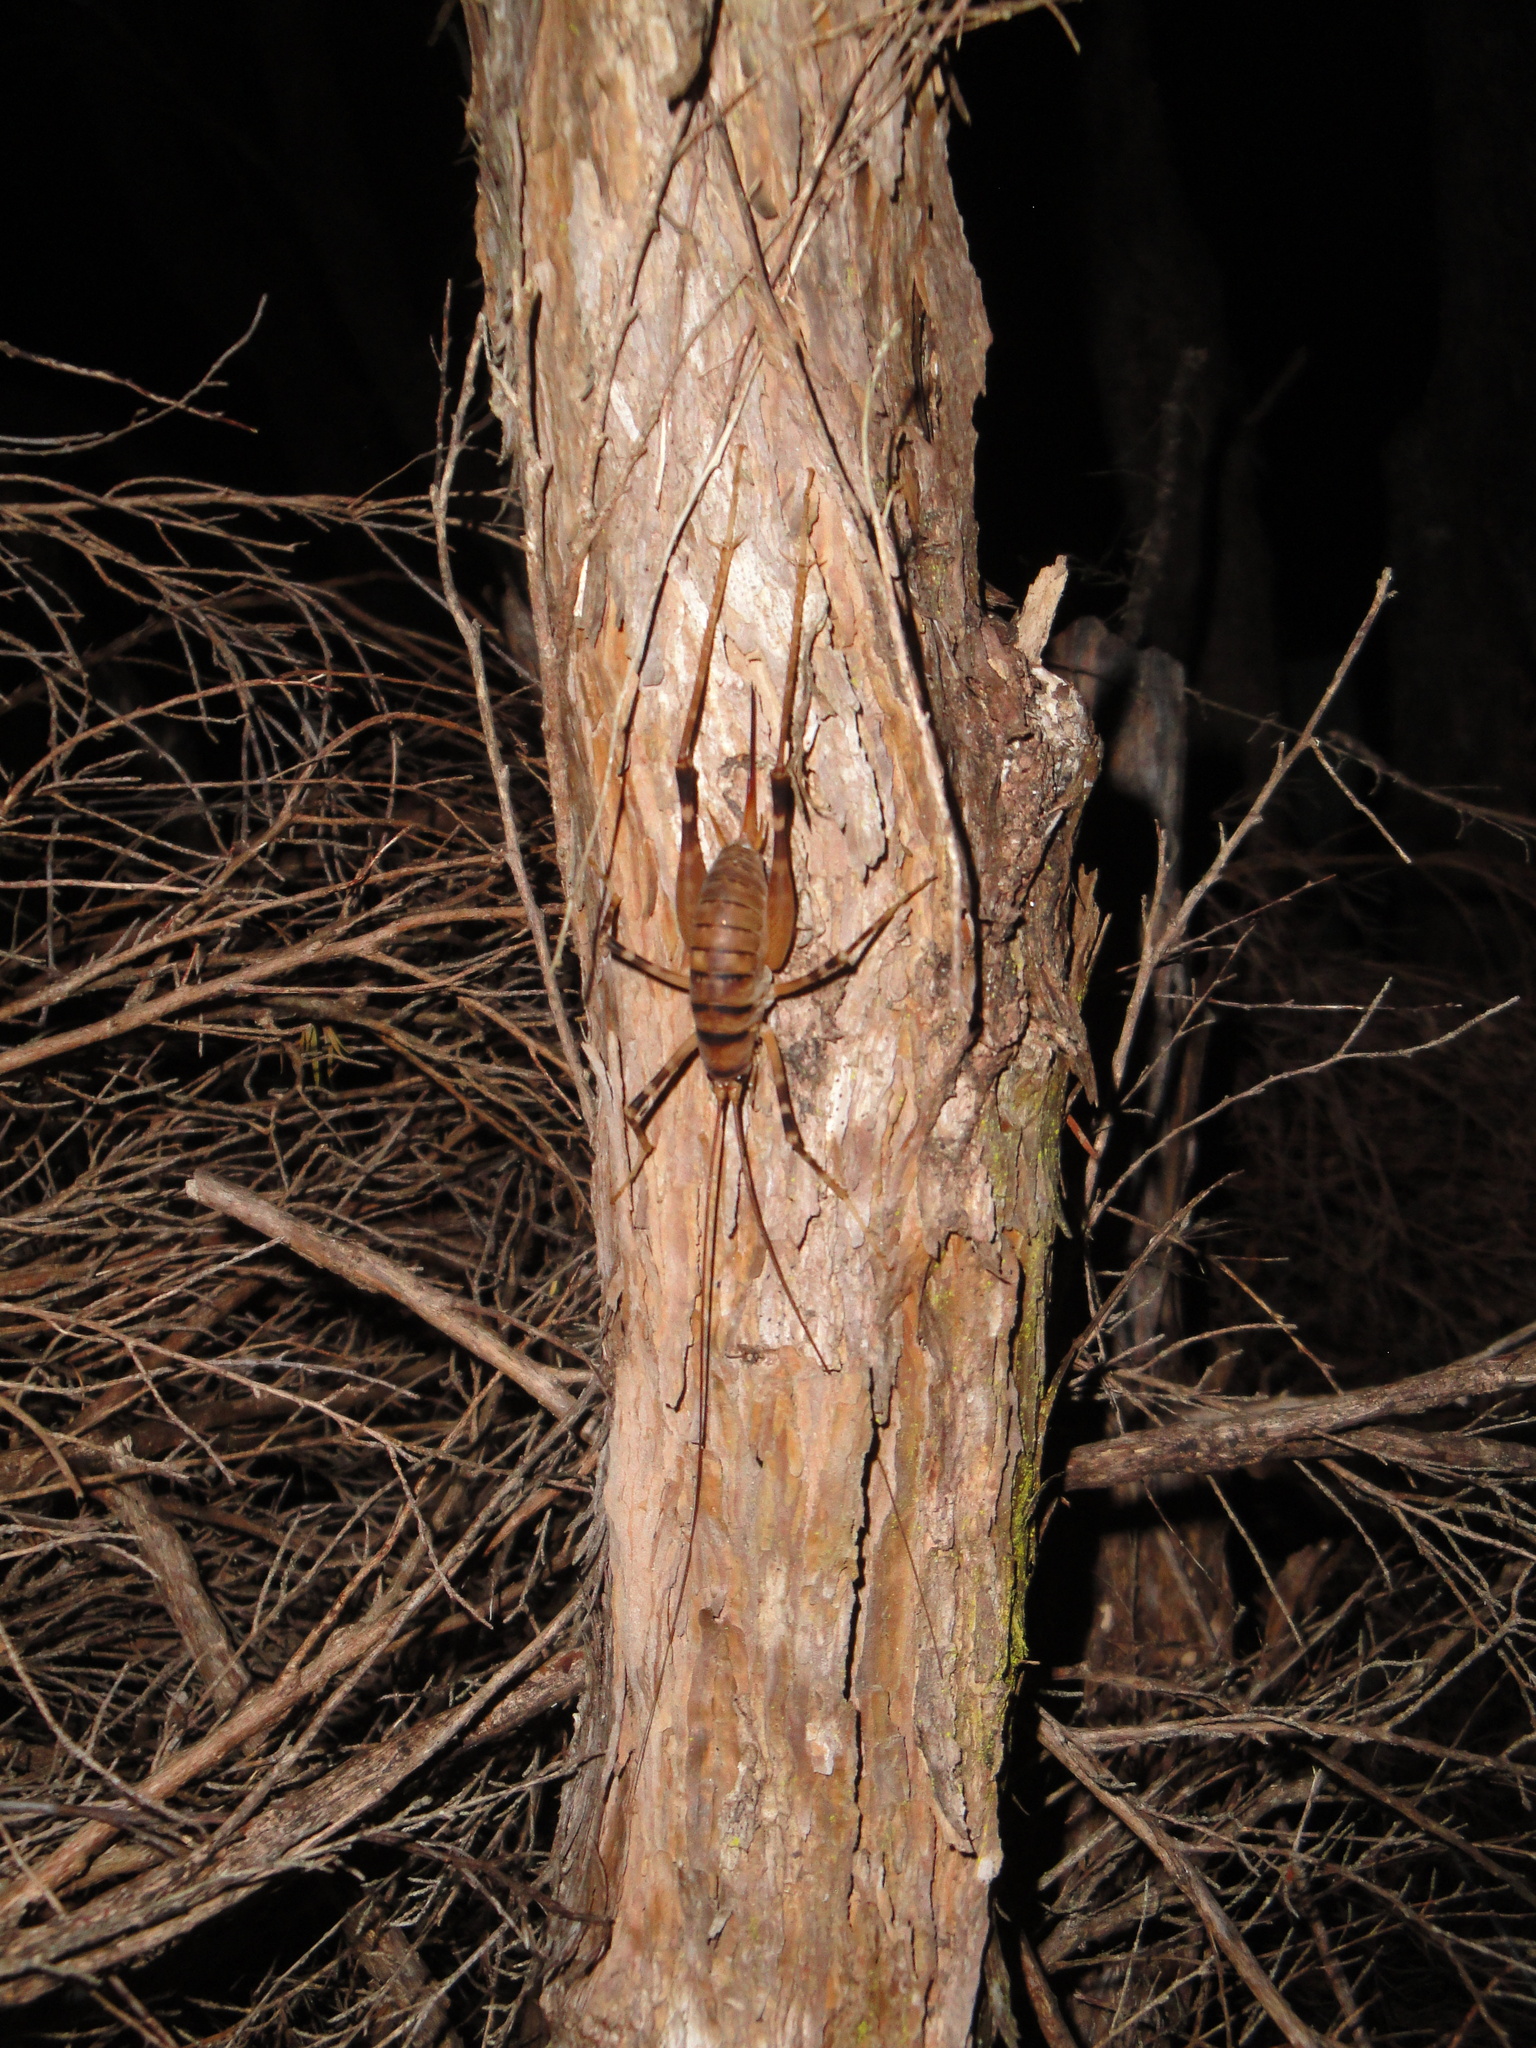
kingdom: Animalia
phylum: Arthropoda
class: Insecta
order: Orthoptera
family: Rhaphidophoridae
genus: Pachyrhamma
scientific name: Pachyrhamma edwardsii
